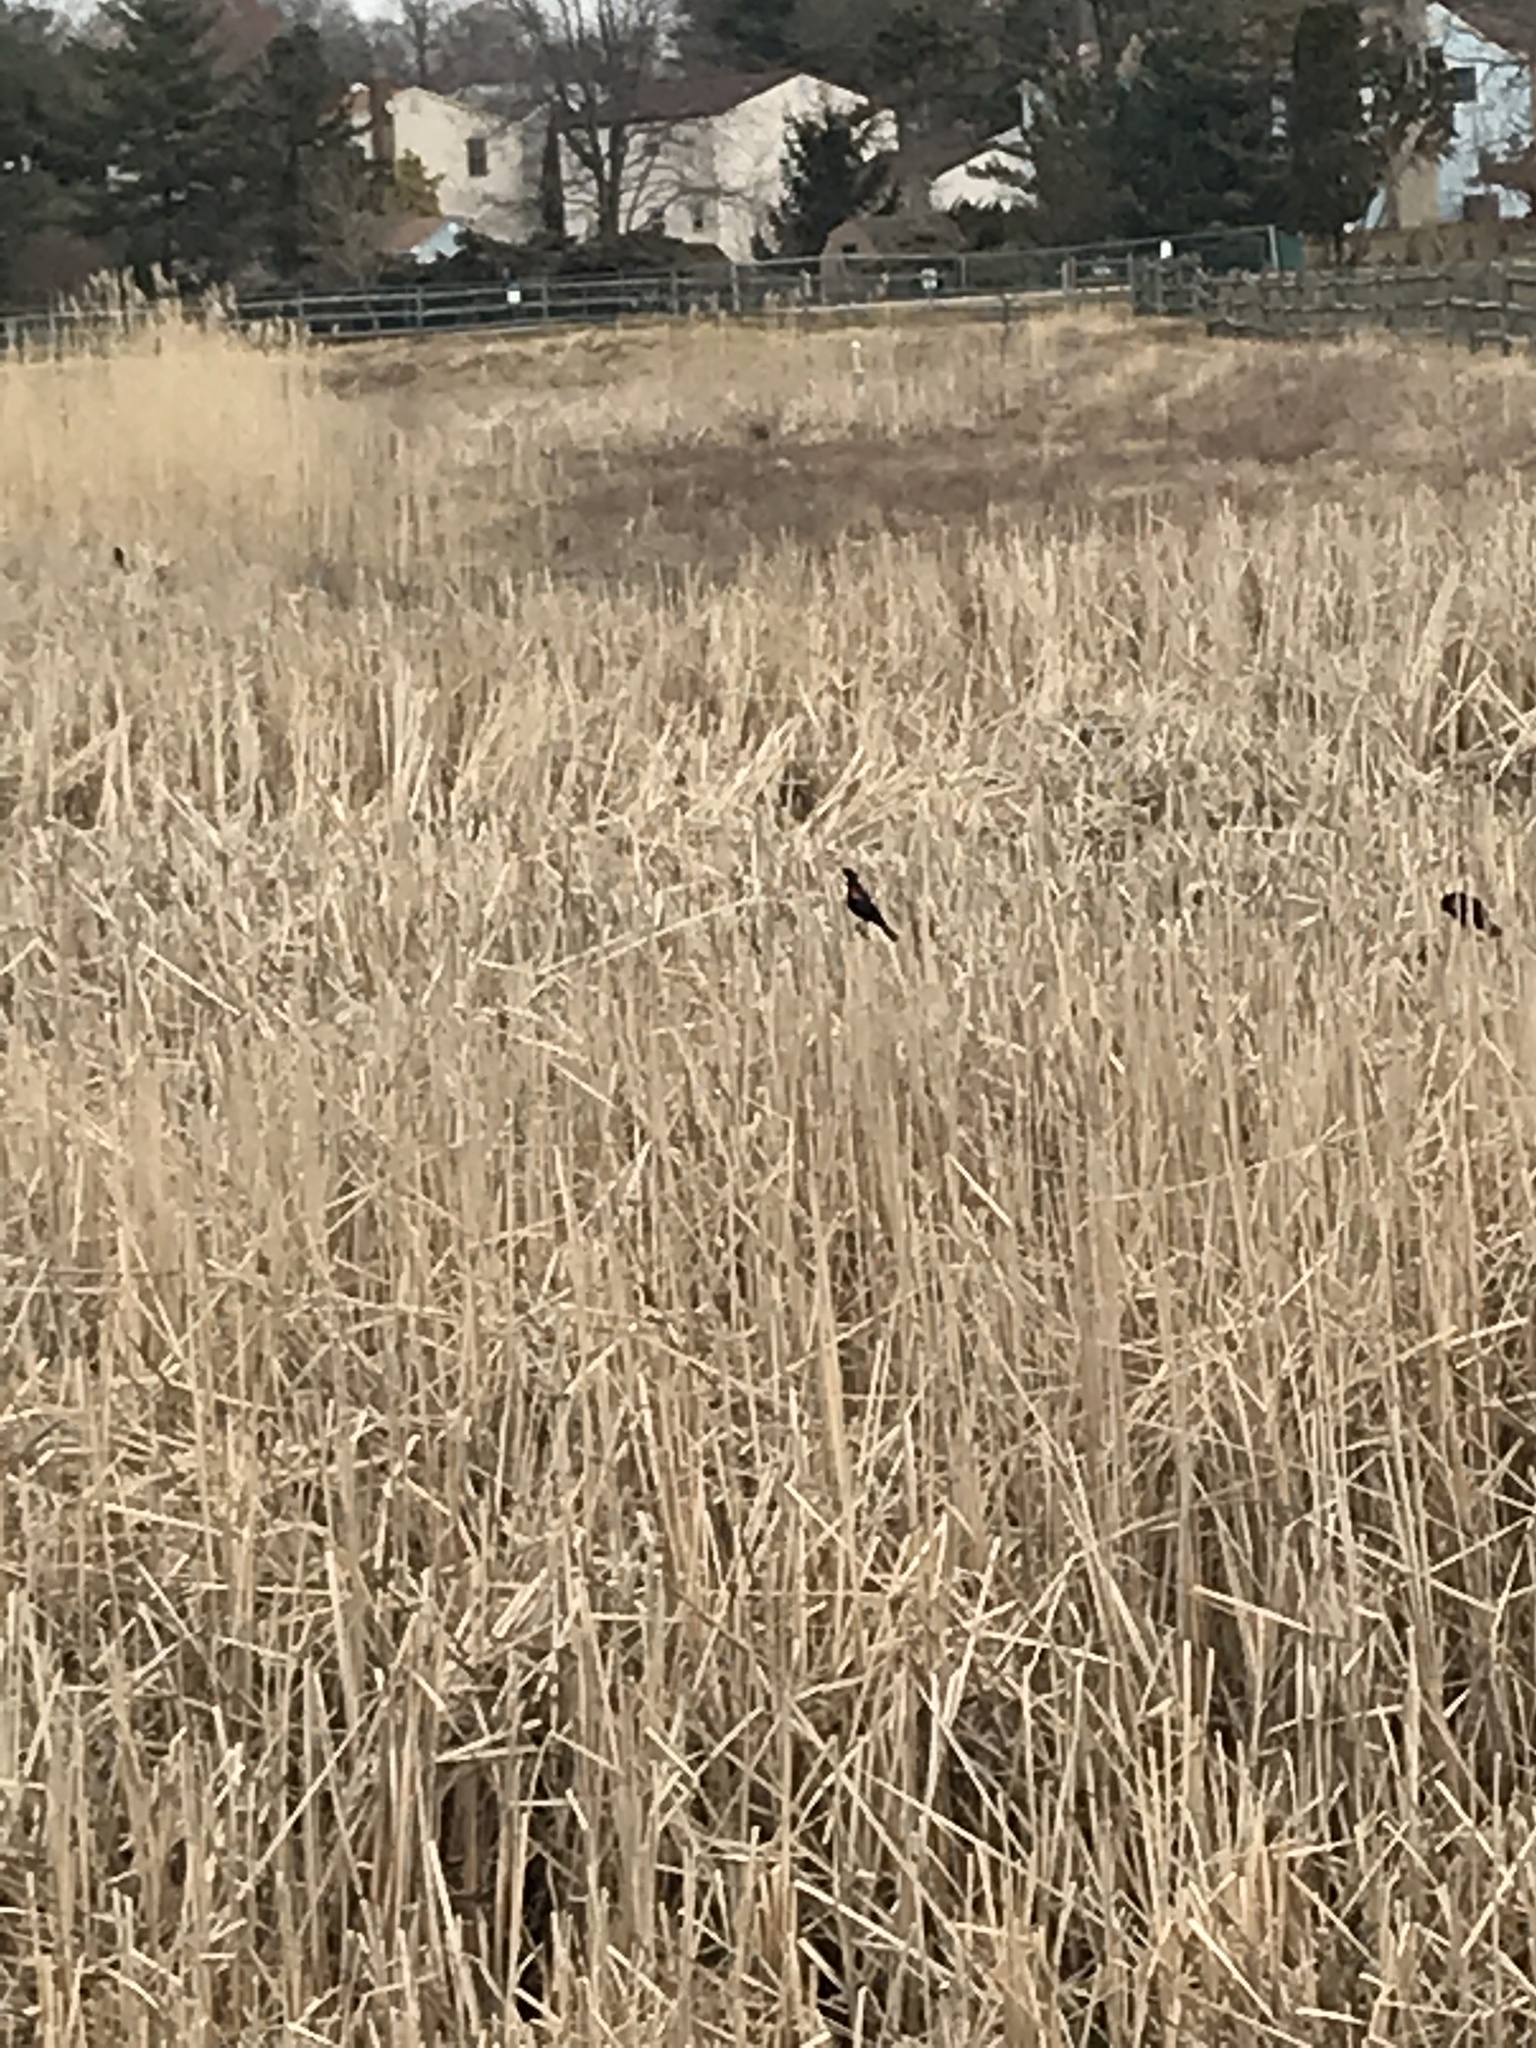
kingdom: Animalia
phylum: Chordata
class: Aves
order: Passeriformes
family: Icteridae
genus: Agelaius
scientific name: Agelaius phoeniceus
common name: Red-winged blackbird
